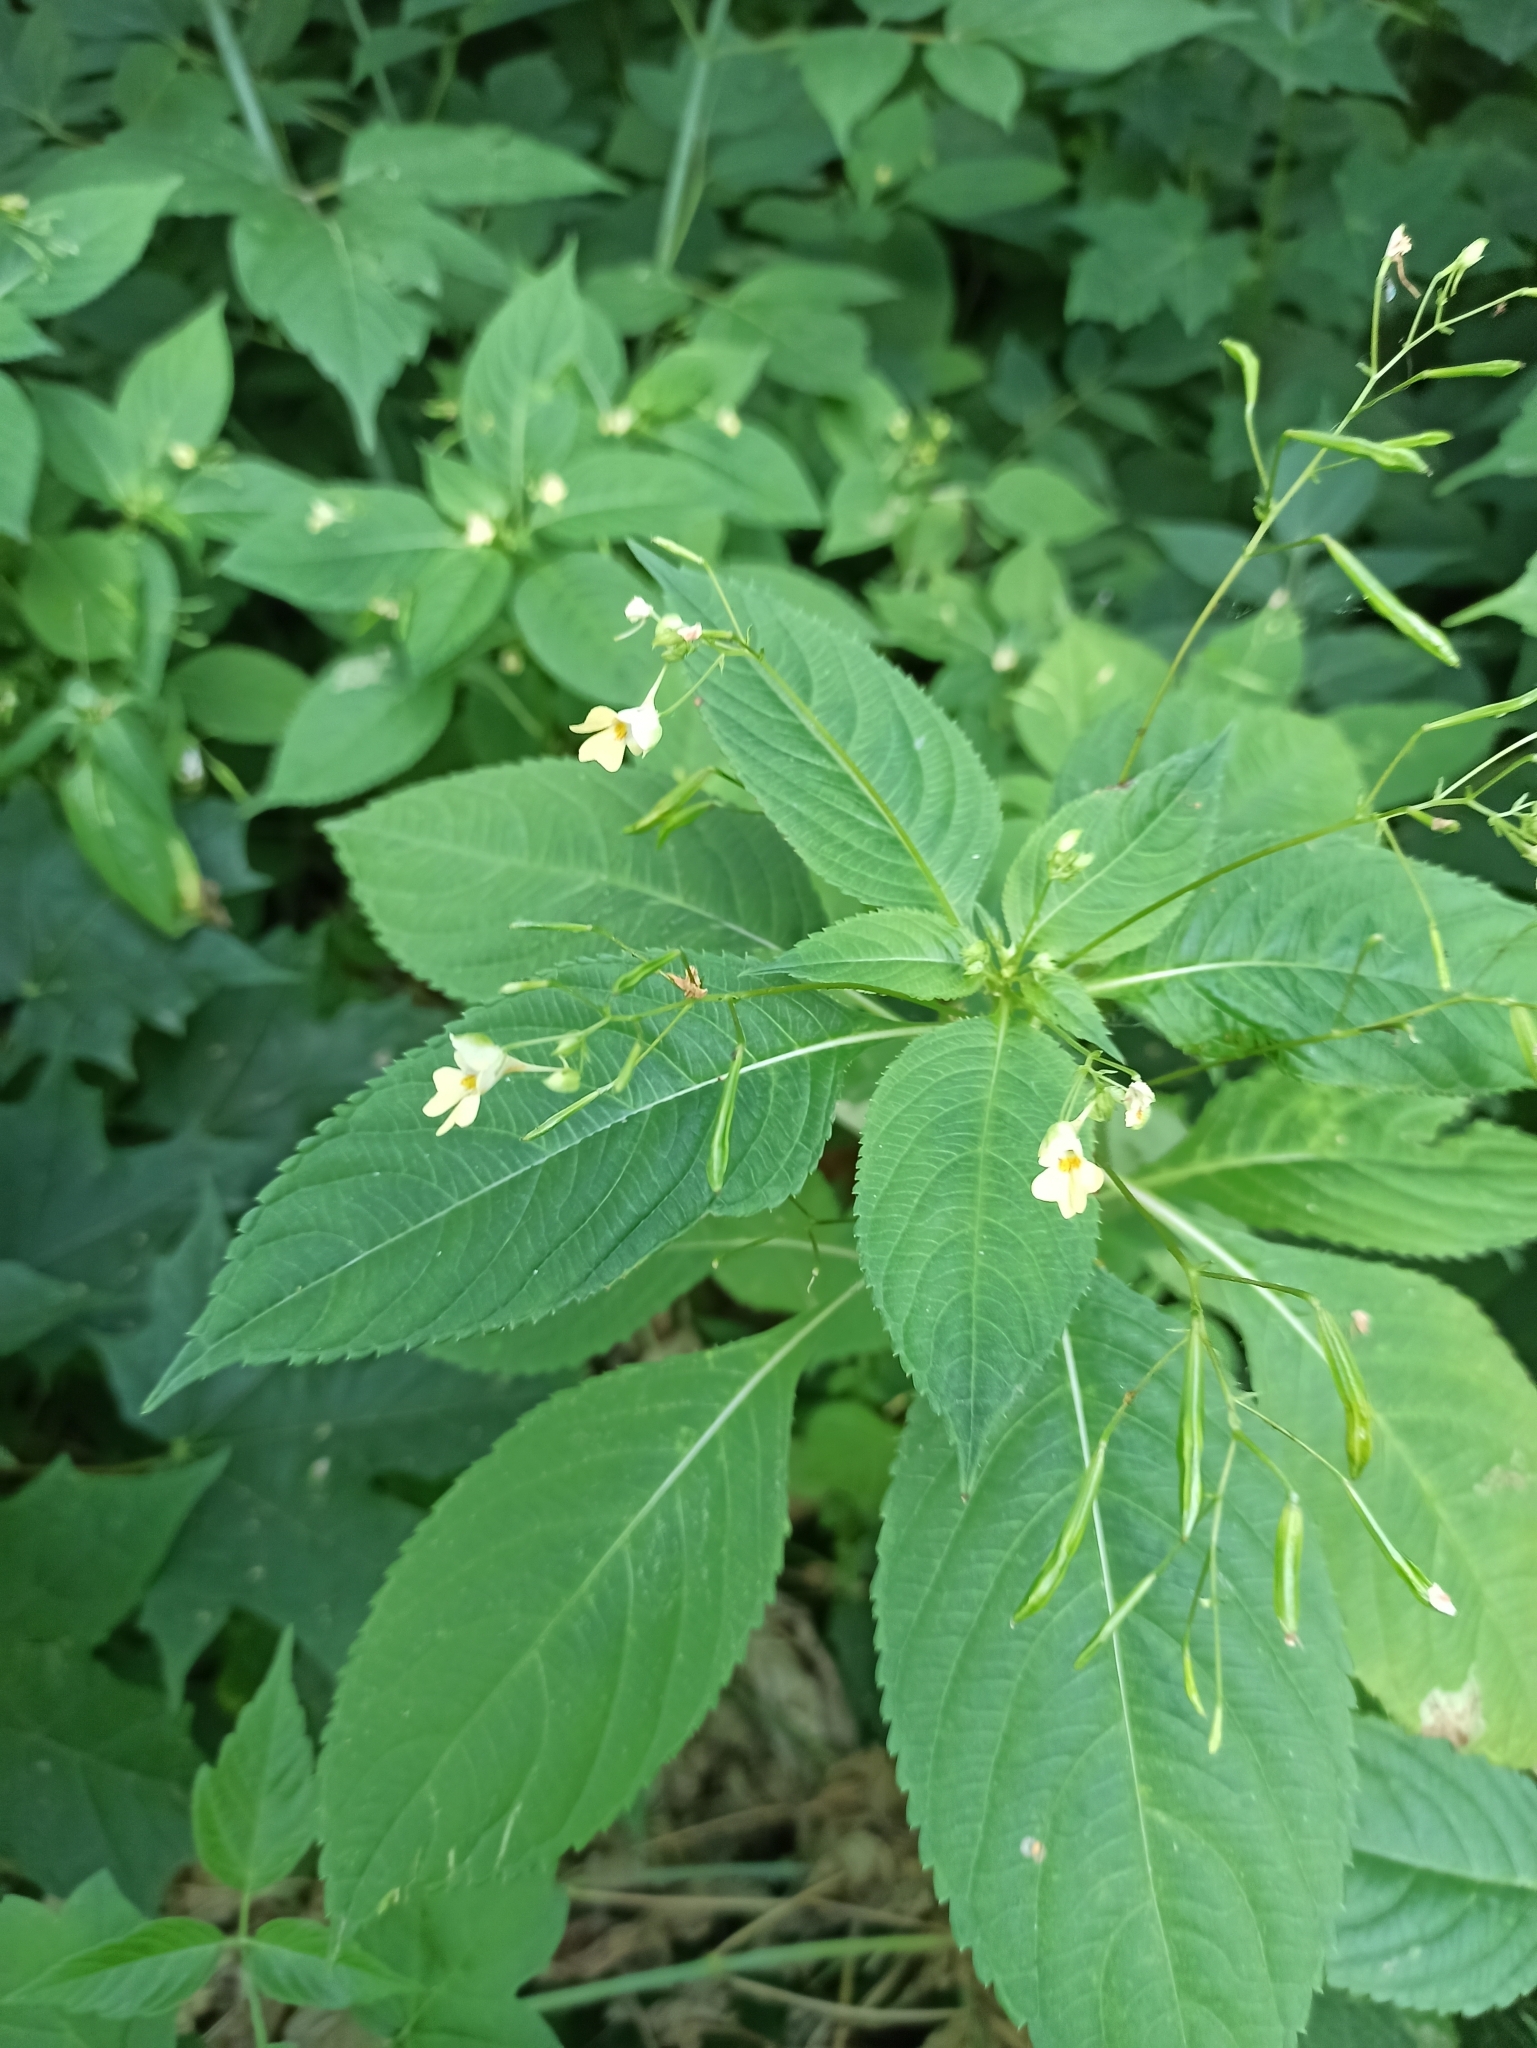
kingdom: Plantae
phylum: Tracheophyta
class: Magnoliopsida
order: Ericales
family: Balsaminaceae
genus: Impatiens
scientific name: Impatiens parviflora
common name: Small balsam
